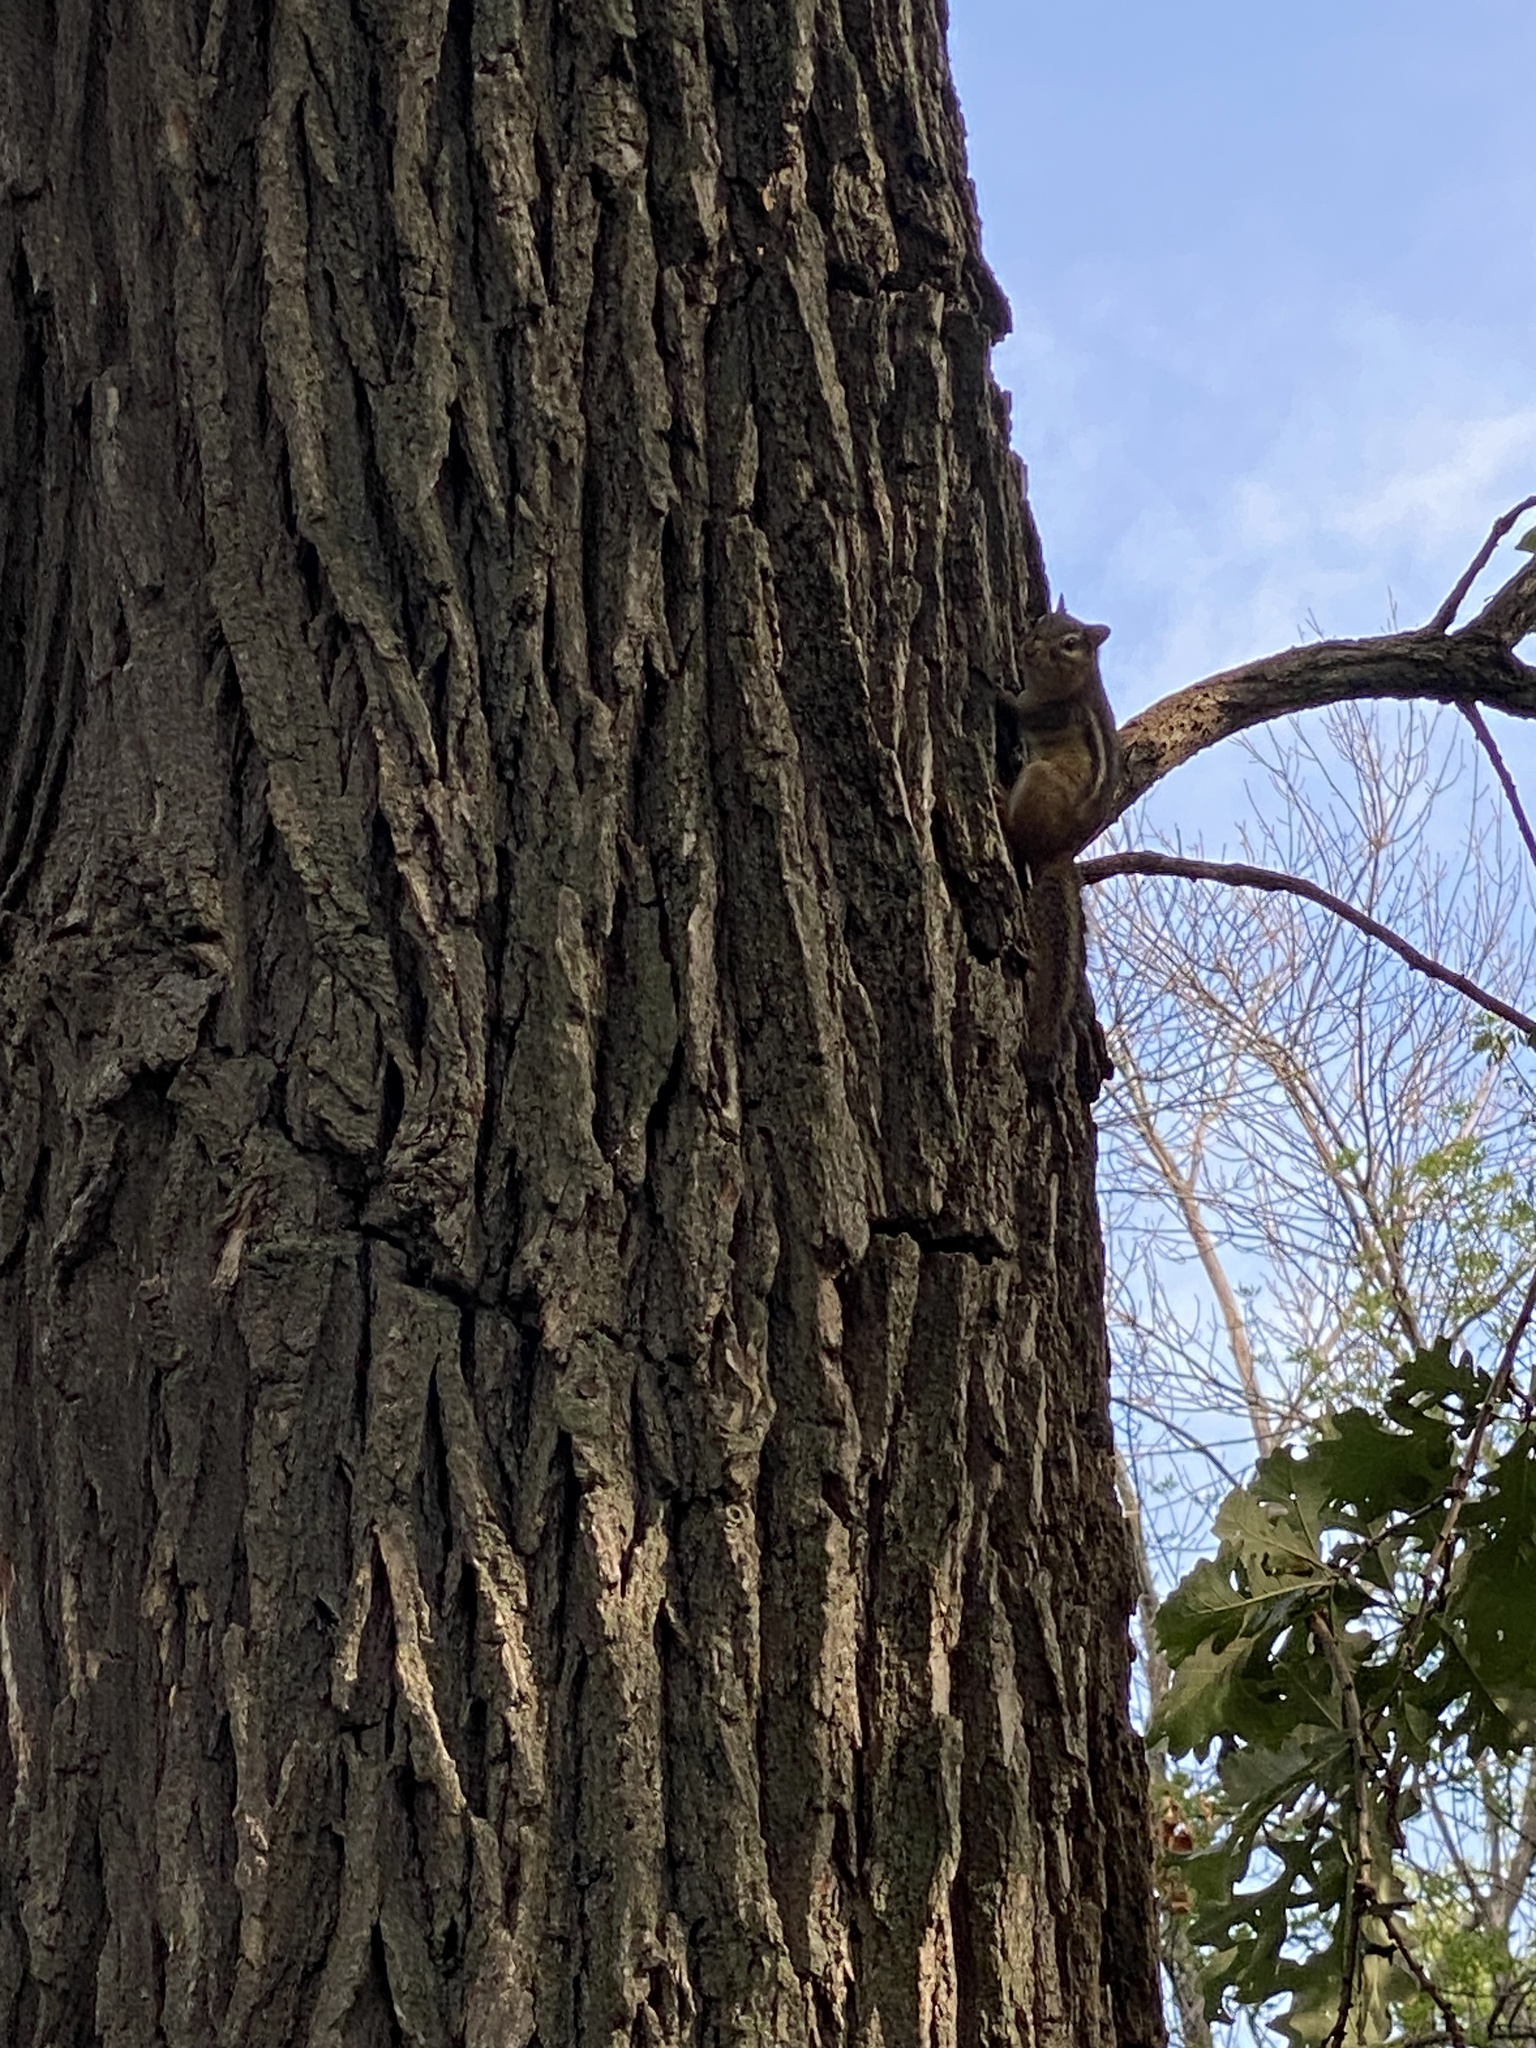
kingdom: Animalia
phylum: Chordata
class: Mammalia
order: Rodentia
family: Sciuridae
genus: Tamias
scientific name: Tamias striatus
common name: Eastern chipmunk
